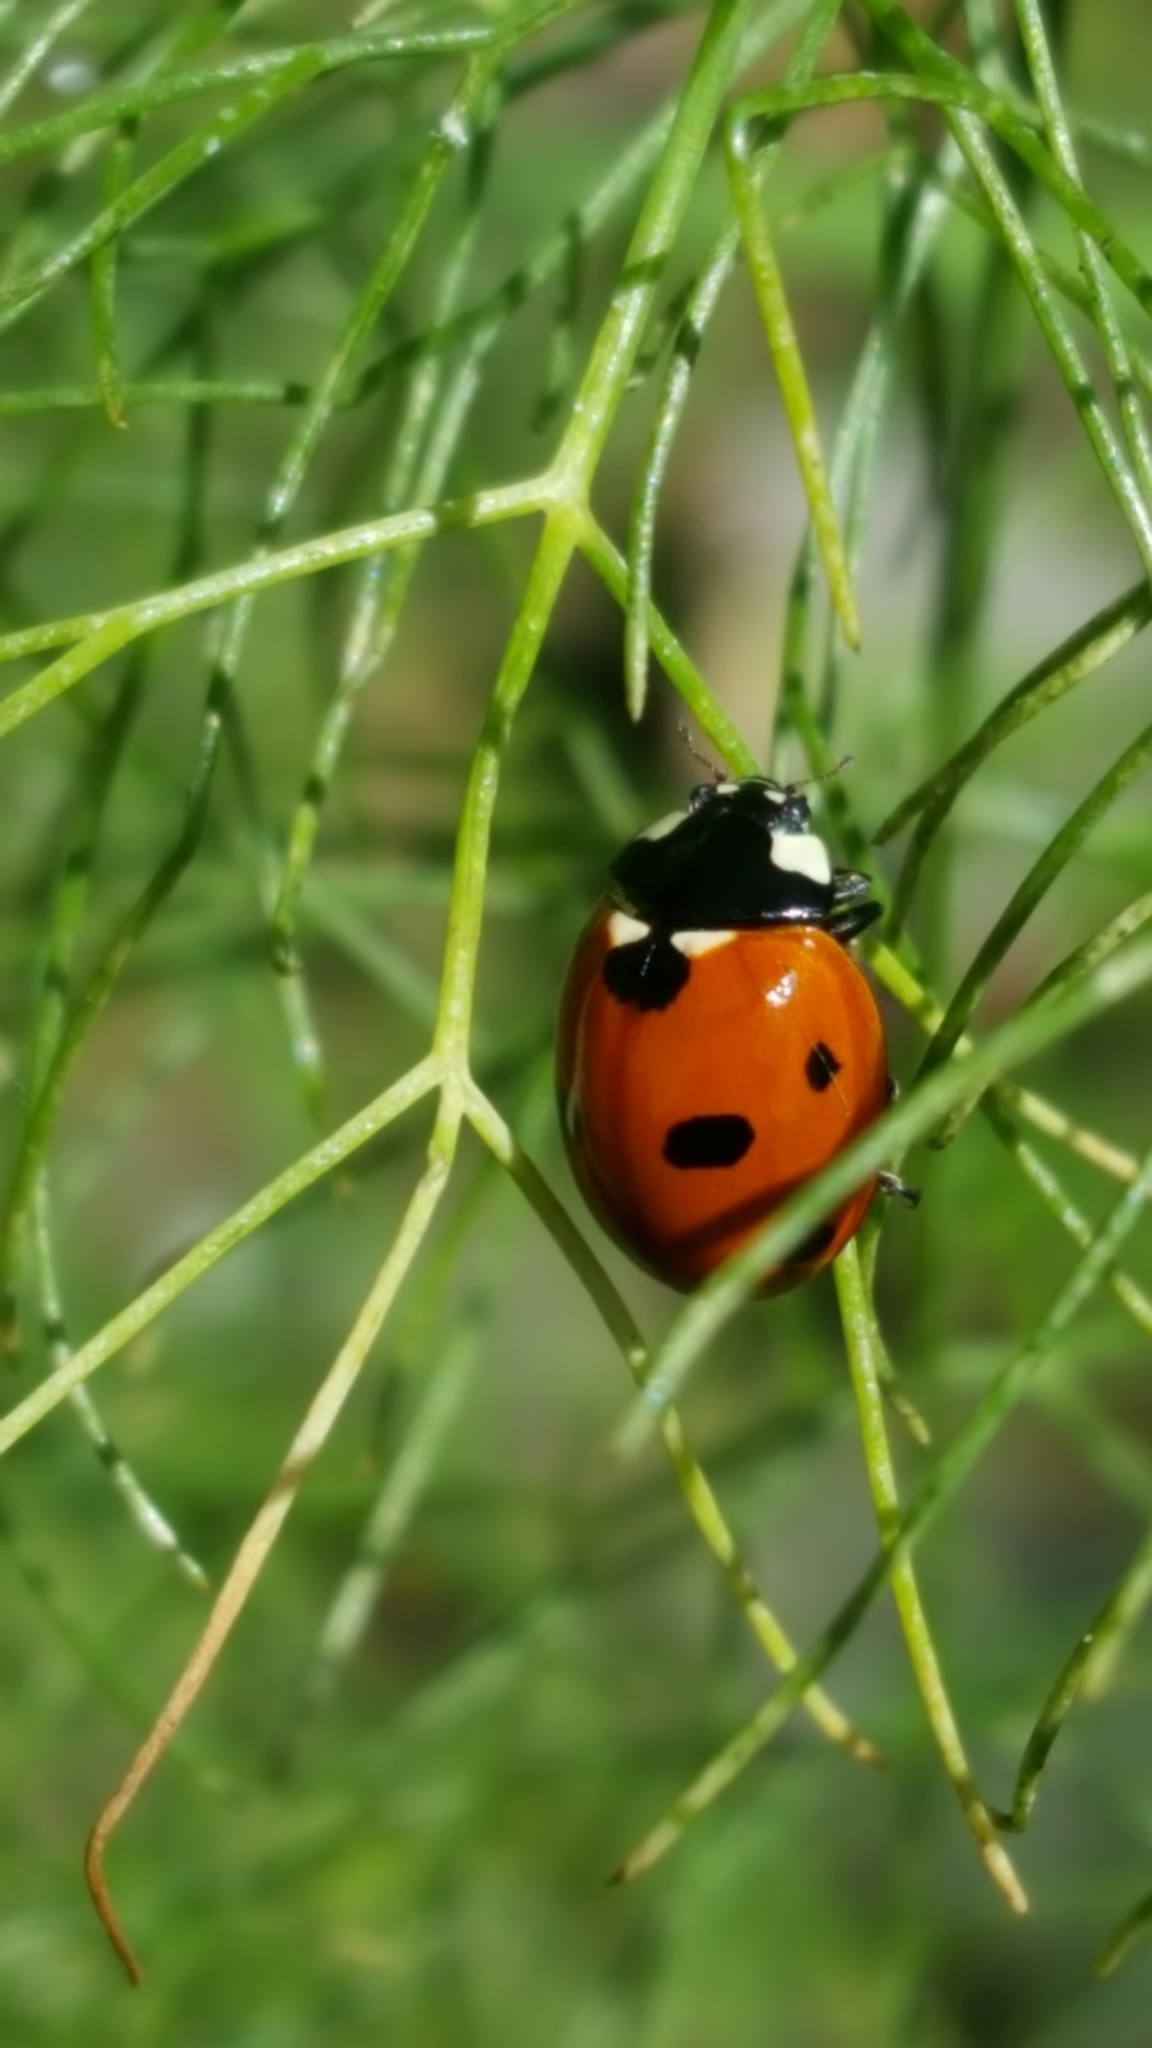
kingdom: Animalia
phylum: Arthropoda
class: Insecta
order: Coleoptera
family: Coccinellidae
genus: Coccinella
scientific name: Coccinella septempunctata
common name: Sevenspotted lady beetle
